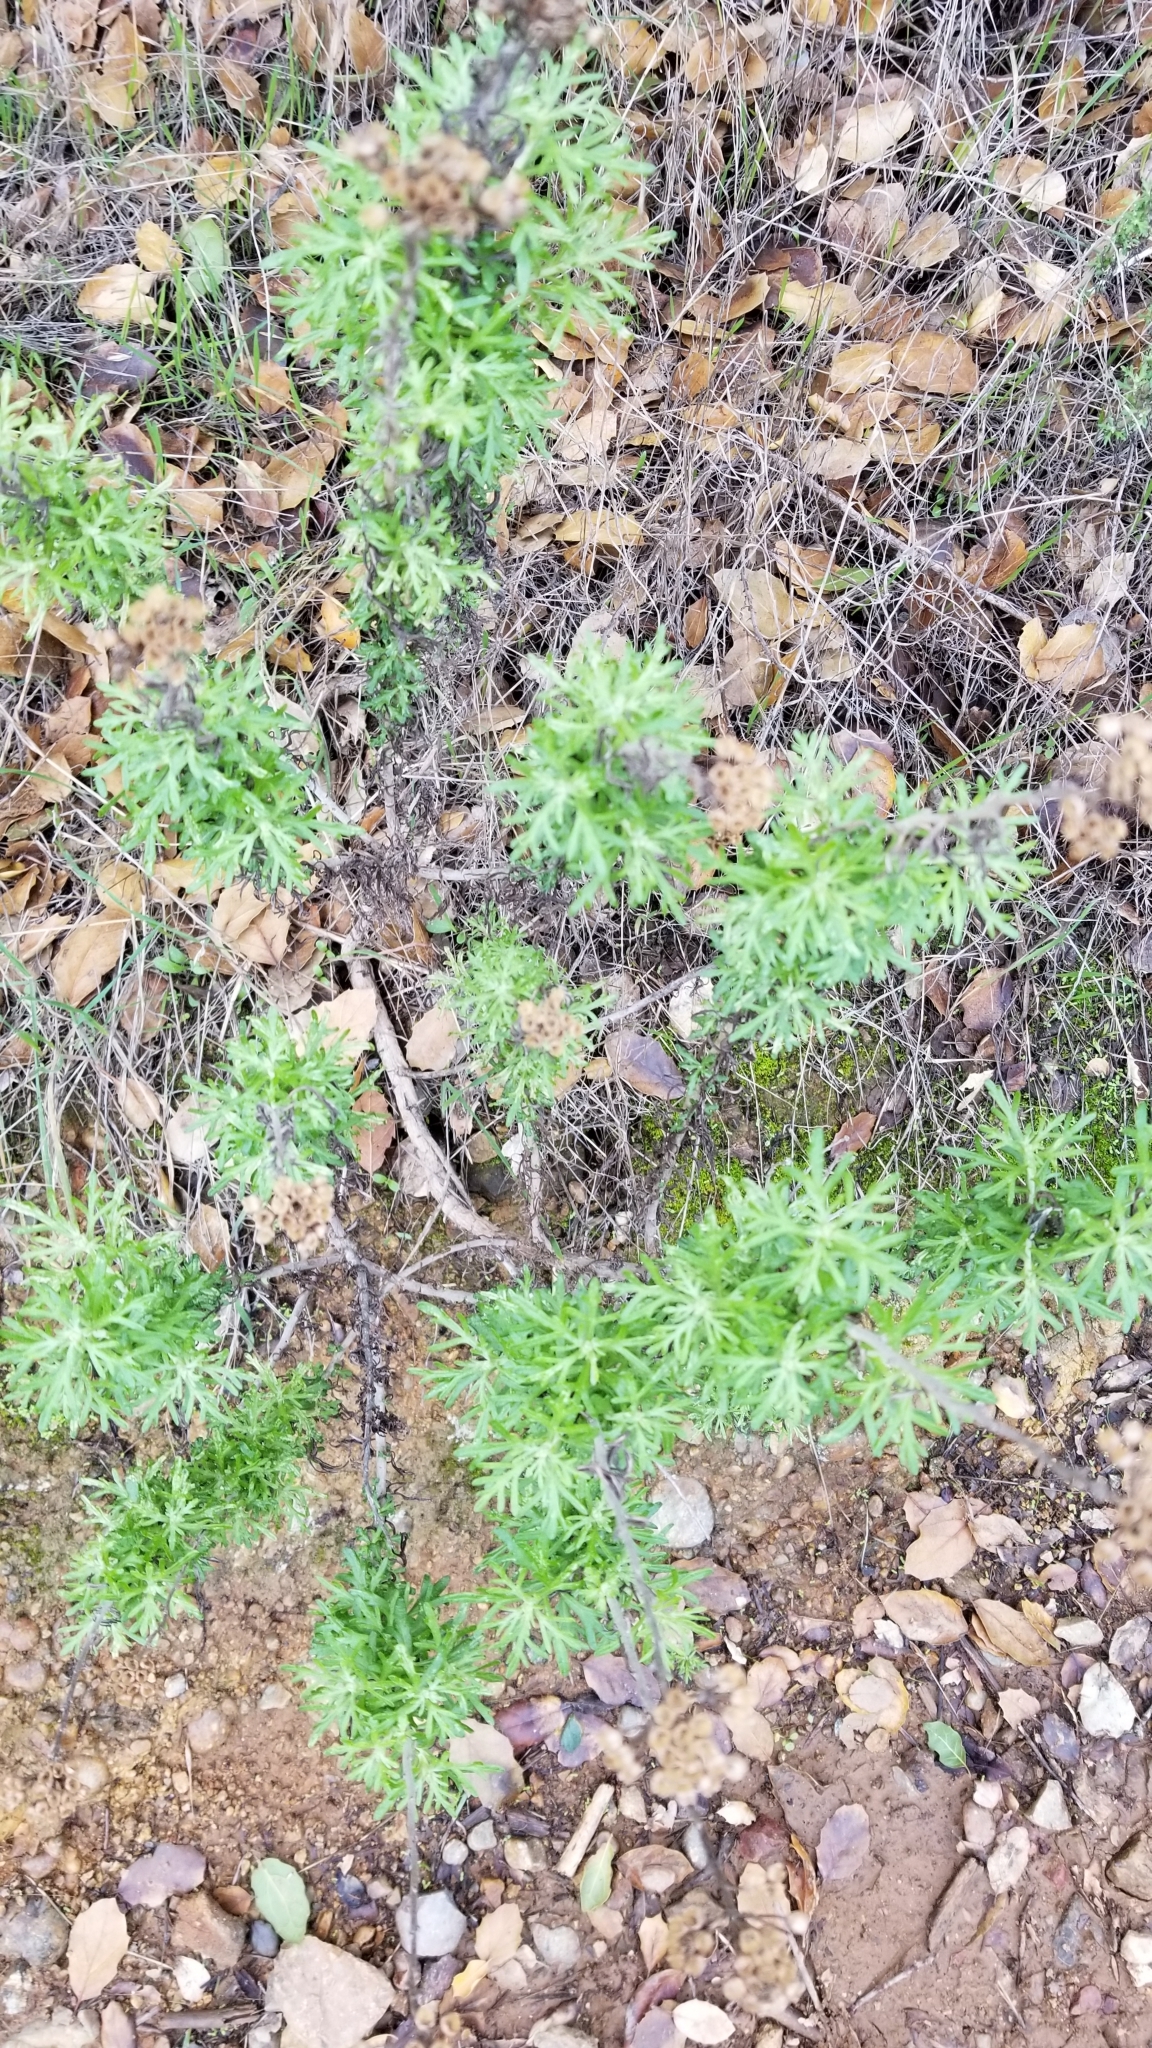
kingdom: Plantae
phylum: Tracheophyta
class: Magnoliopsida
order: Asterales
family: Asteraceae
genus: Eriophyllum
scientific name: Eriophyllum confertiflorum
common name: Golden-yarrow
